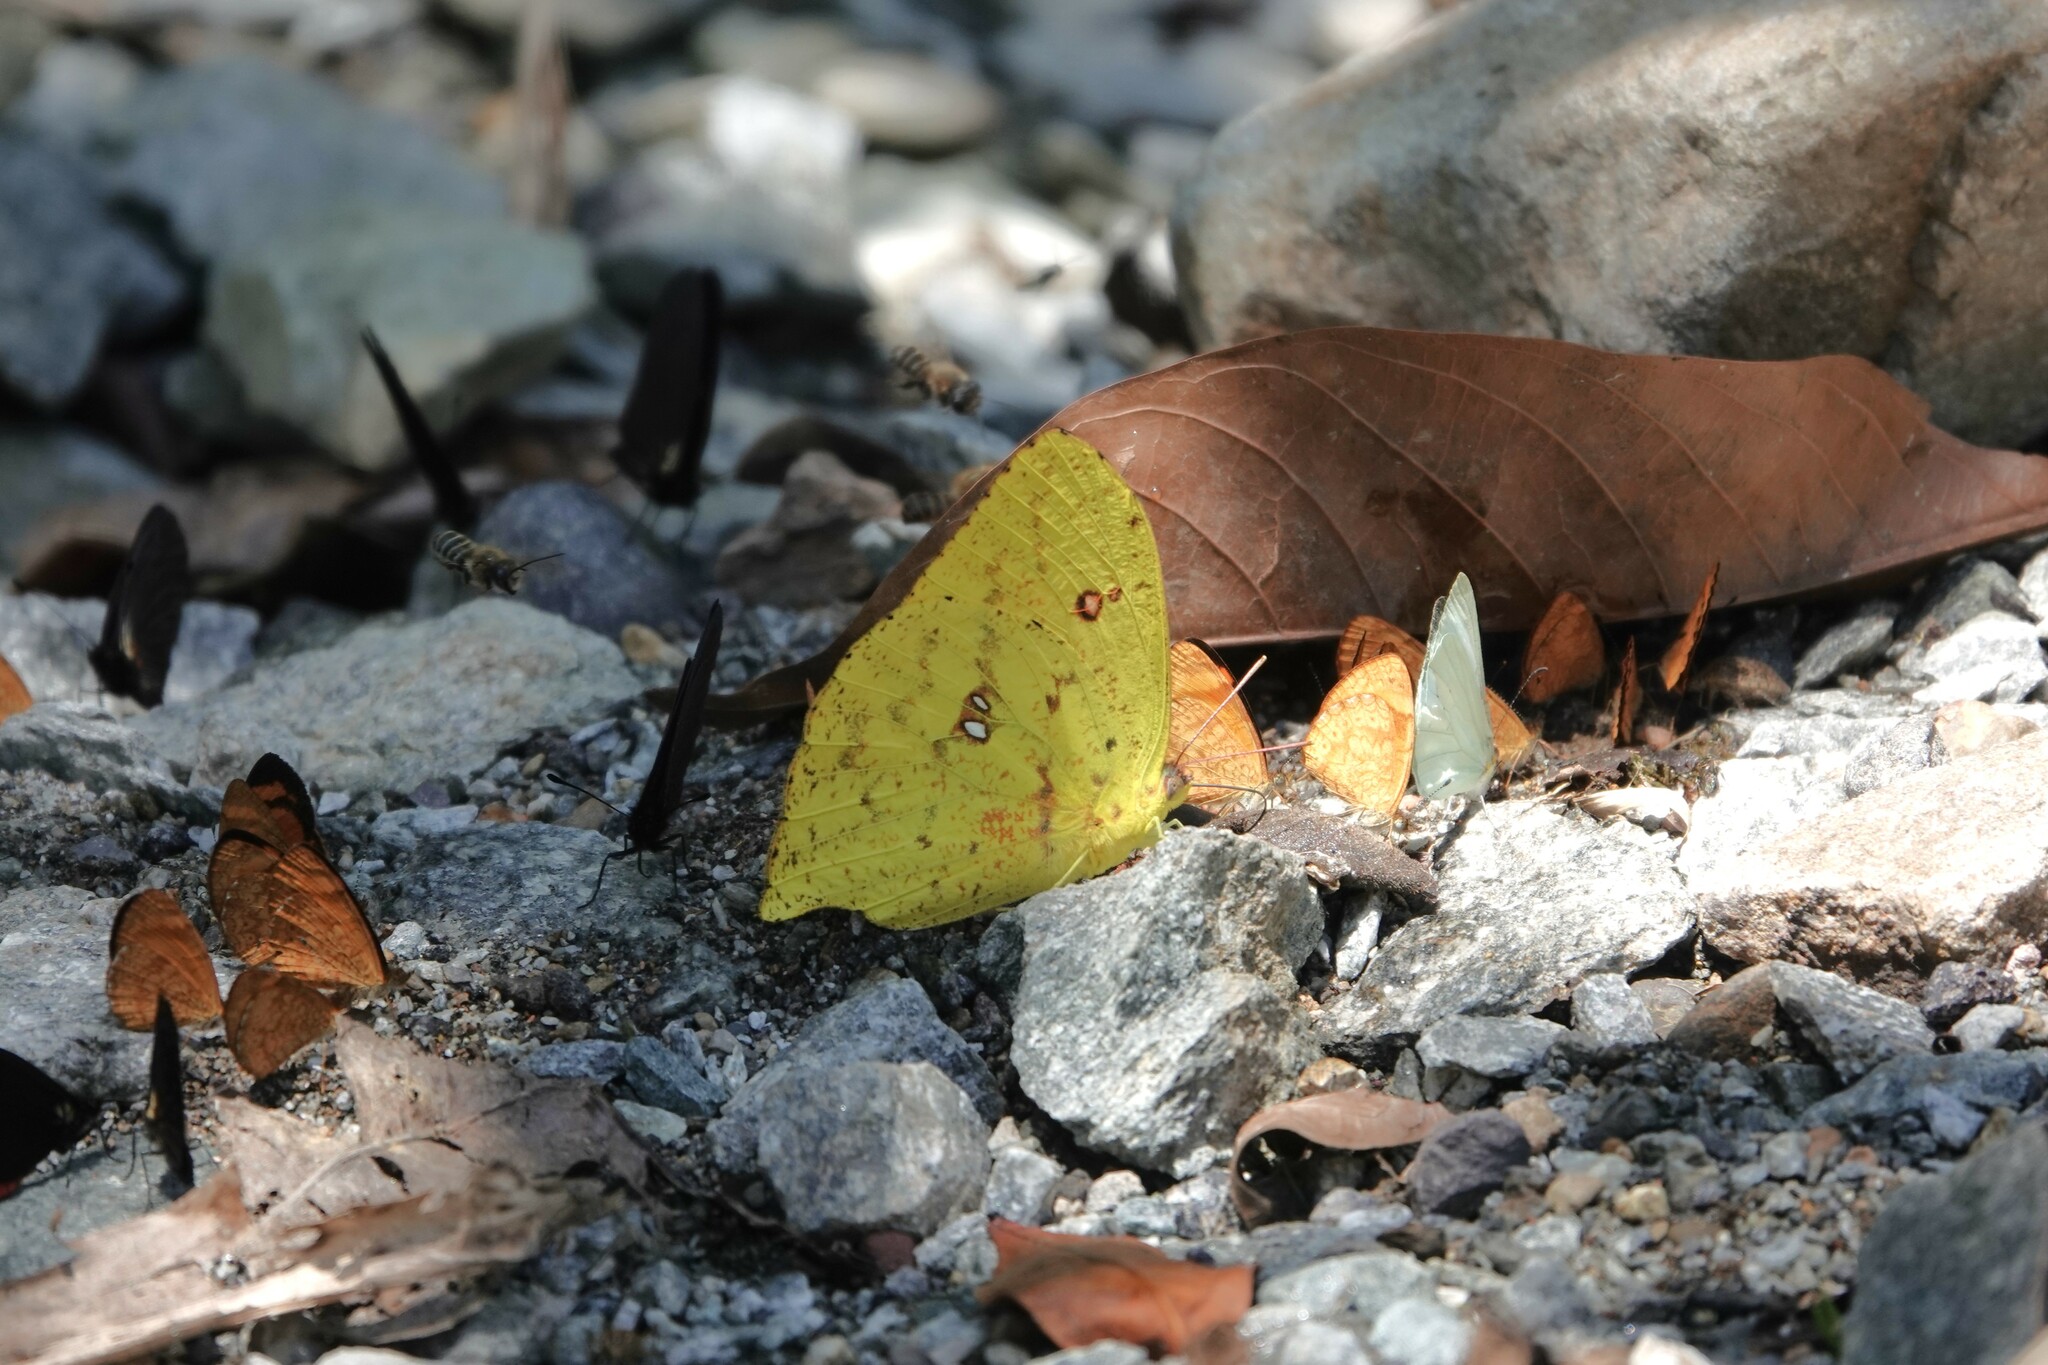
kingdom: Animalia
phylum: Arthropoda
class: Insecta
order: Lepidoptera
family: Pieridae
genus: Phoebis
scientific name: Phoebis neocypris
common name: Tailed sulphur
